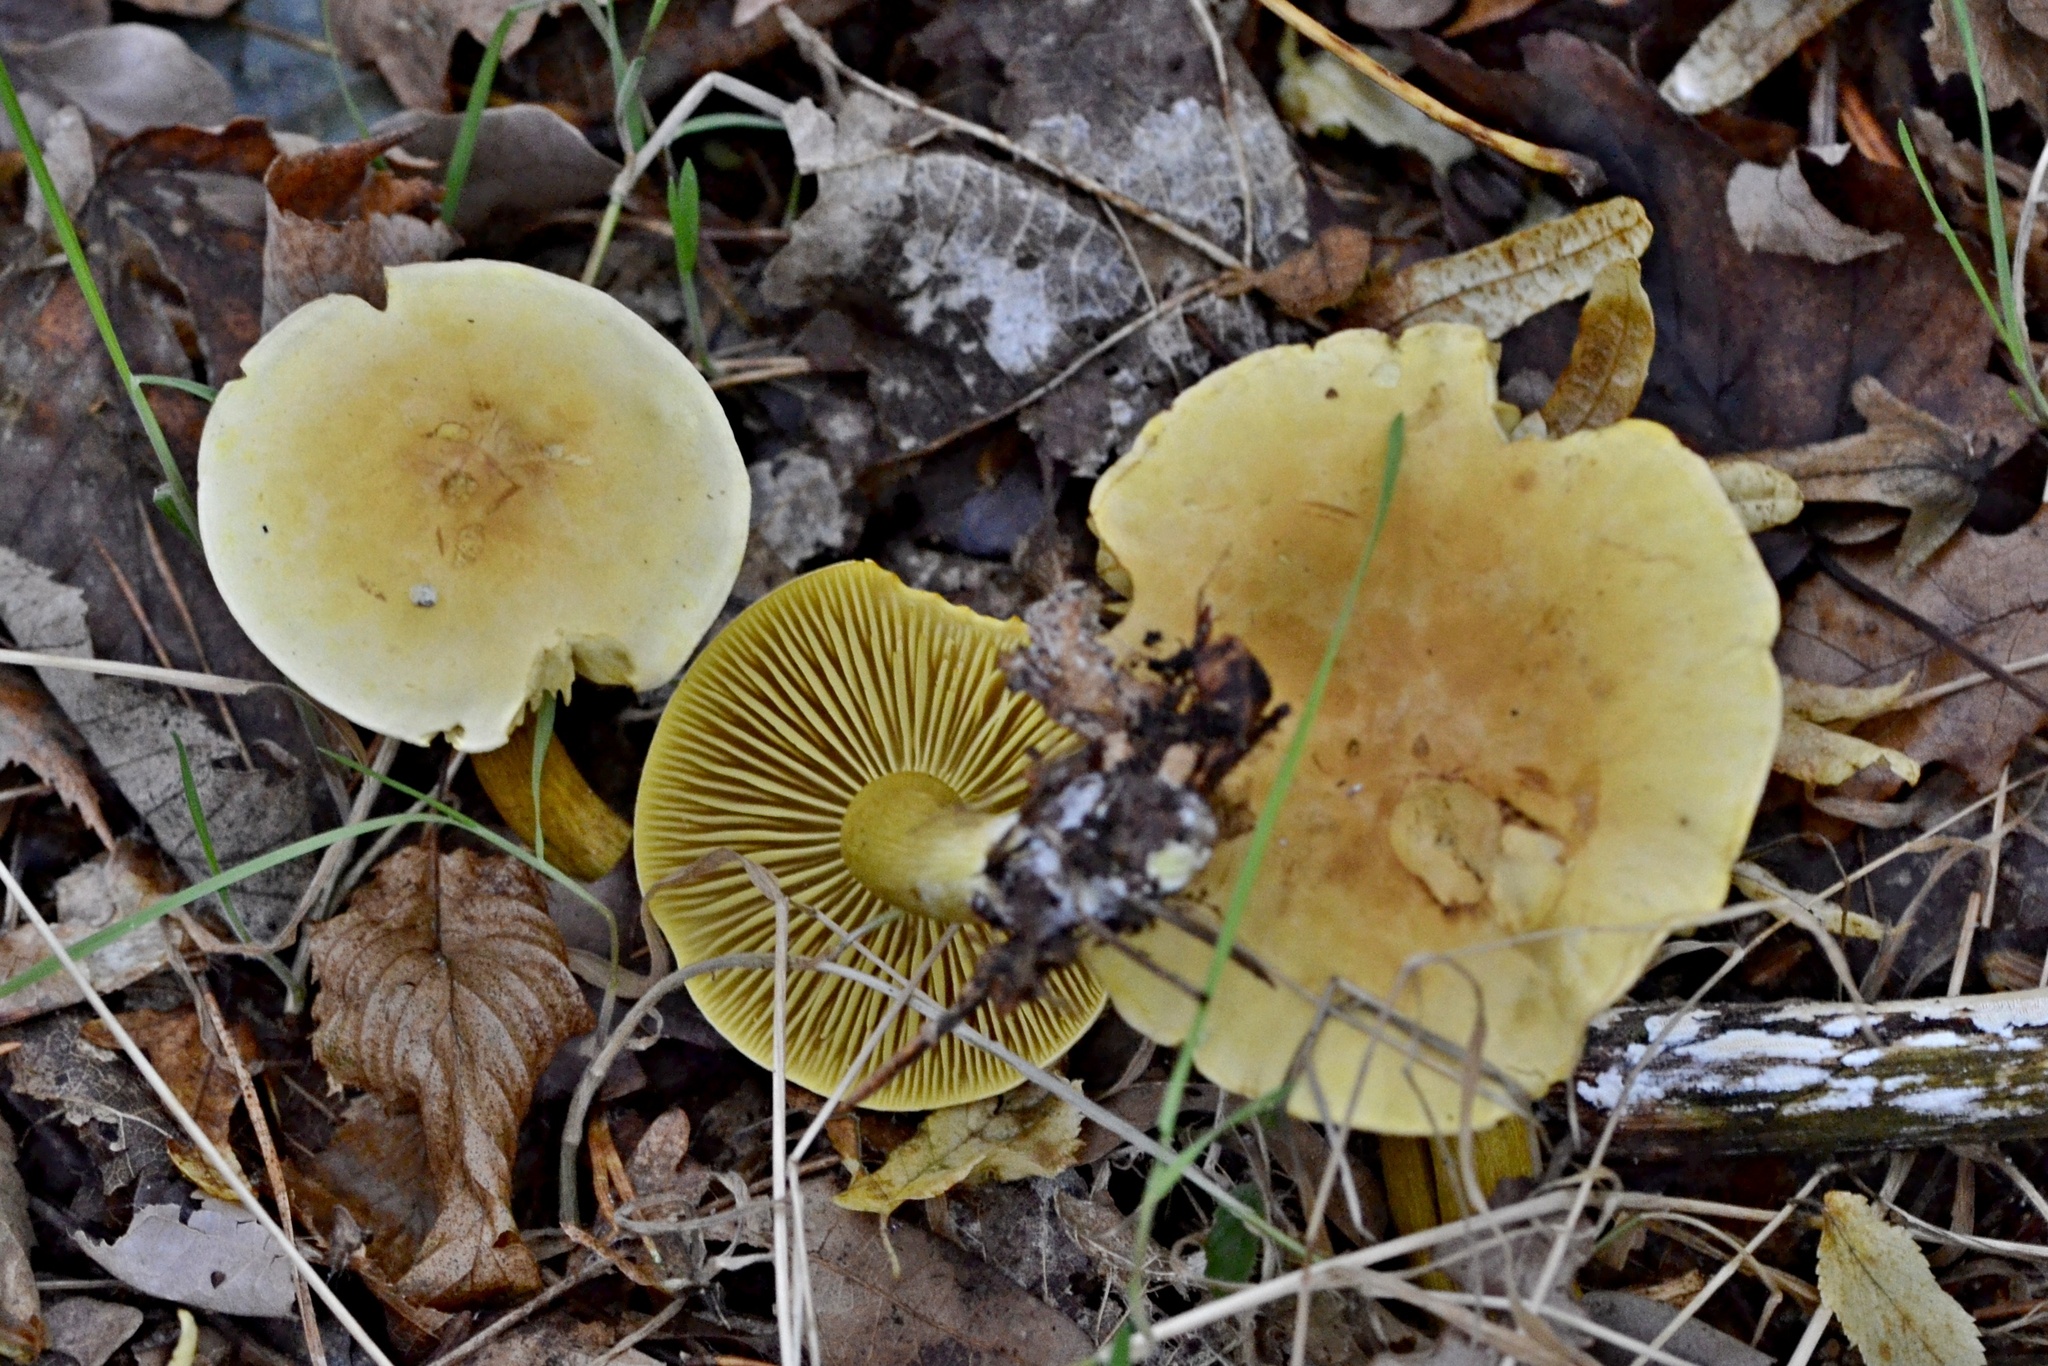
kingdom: Fungi
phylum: Basidiomycota
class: Agaricomycetes
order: Agaricales
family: Tricholomataceae
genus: Tricholoma
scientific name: Tricholoma sulphureum
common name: Stinky knight
